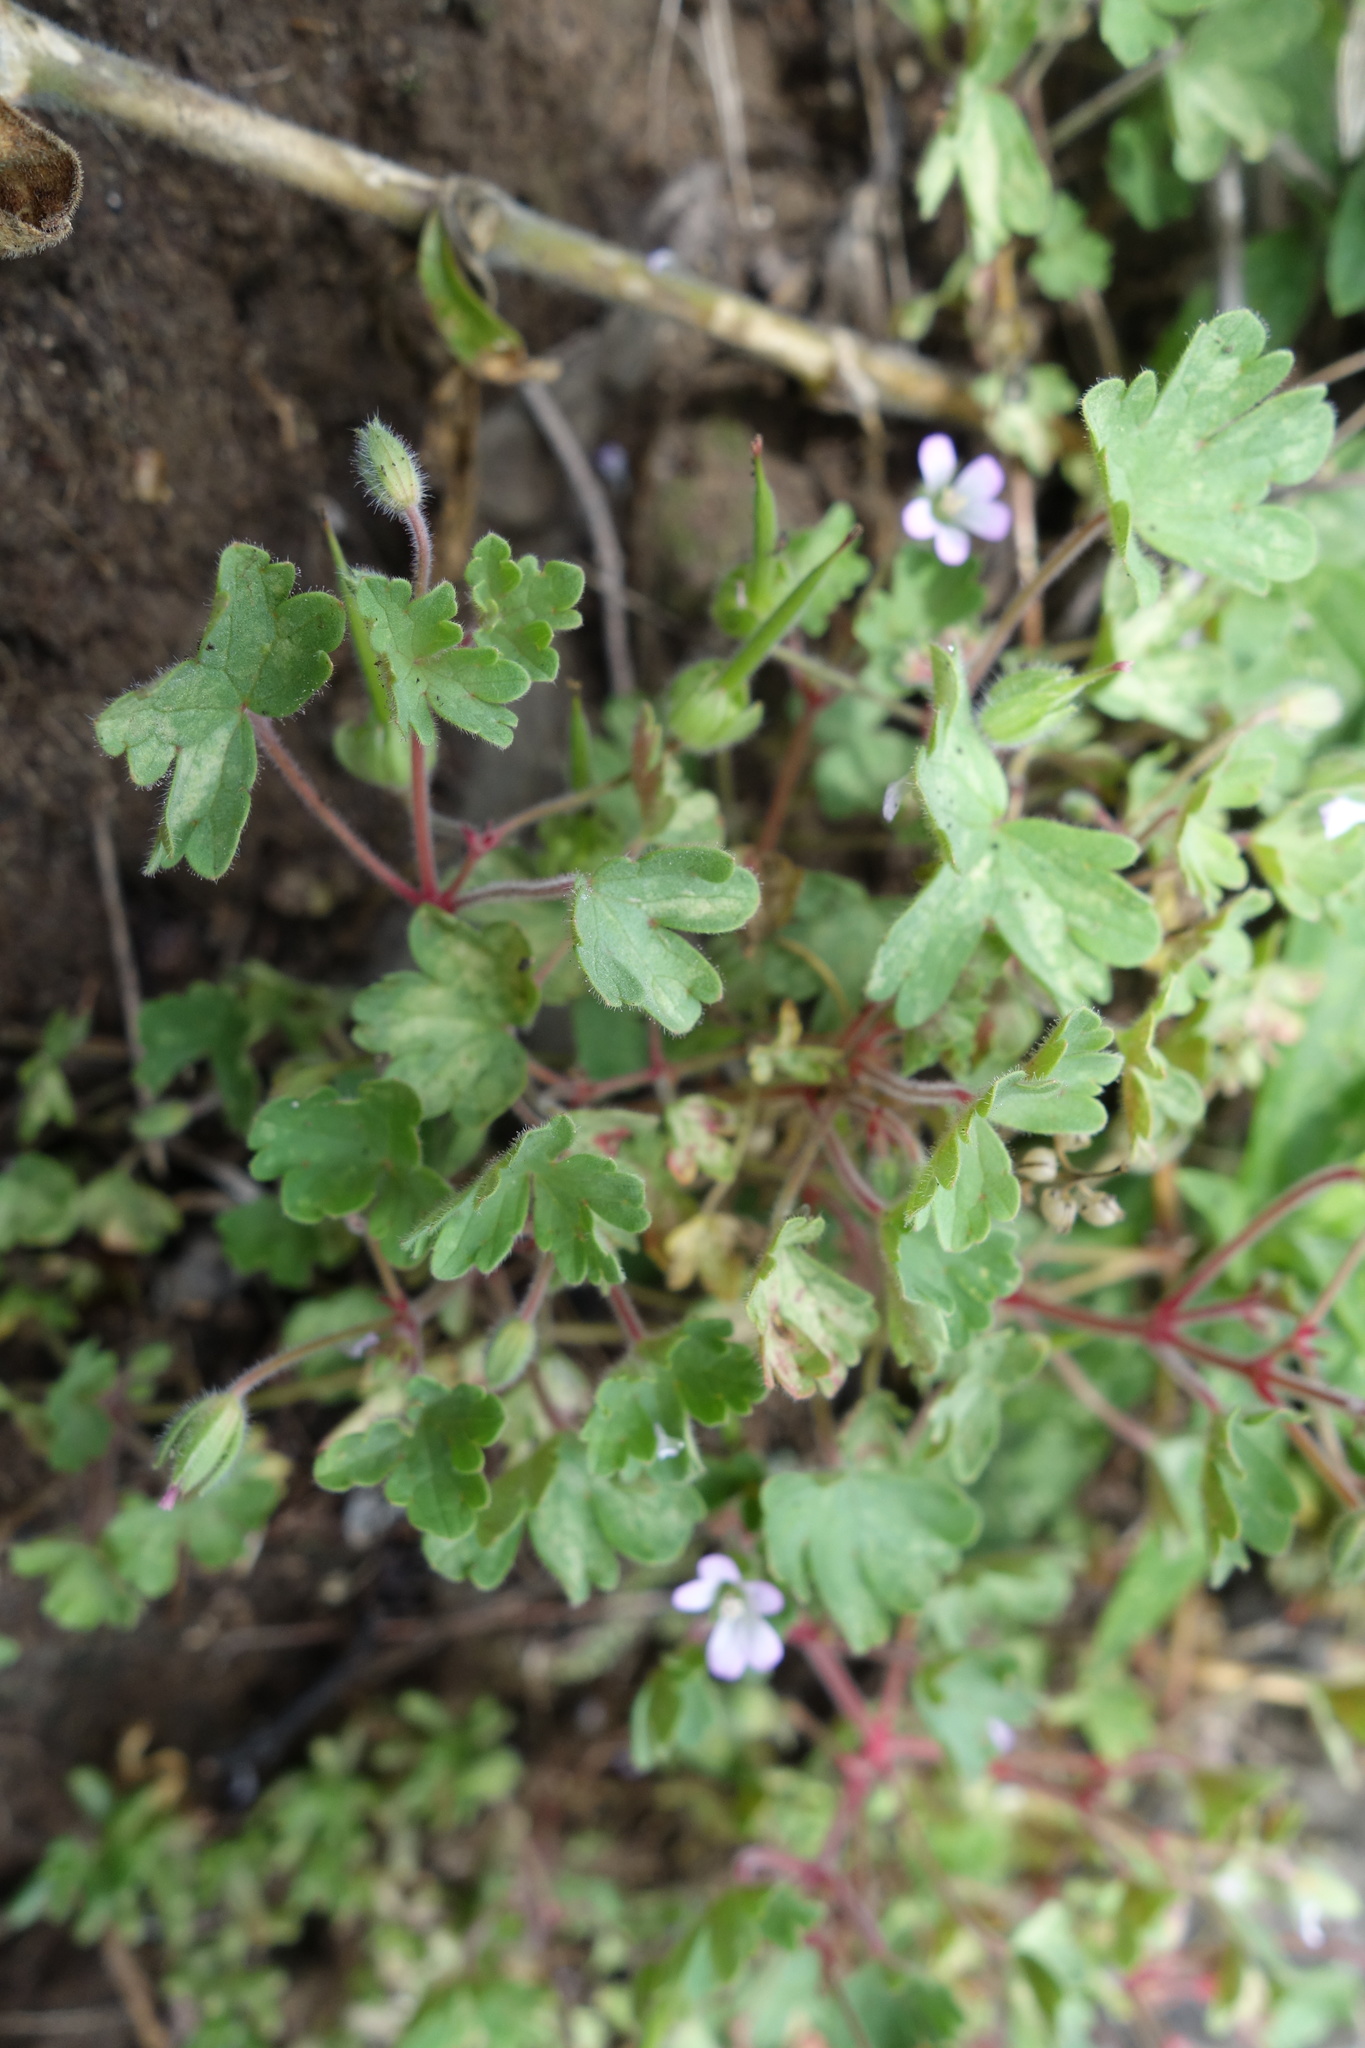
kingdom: Plantae
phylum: Tracheophyta
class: Magnoliopsida
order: Geraniales
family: Geraniaceae
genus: Geranium
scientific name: Geranium rotundifolium
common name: Round-leaved crane's-bill
